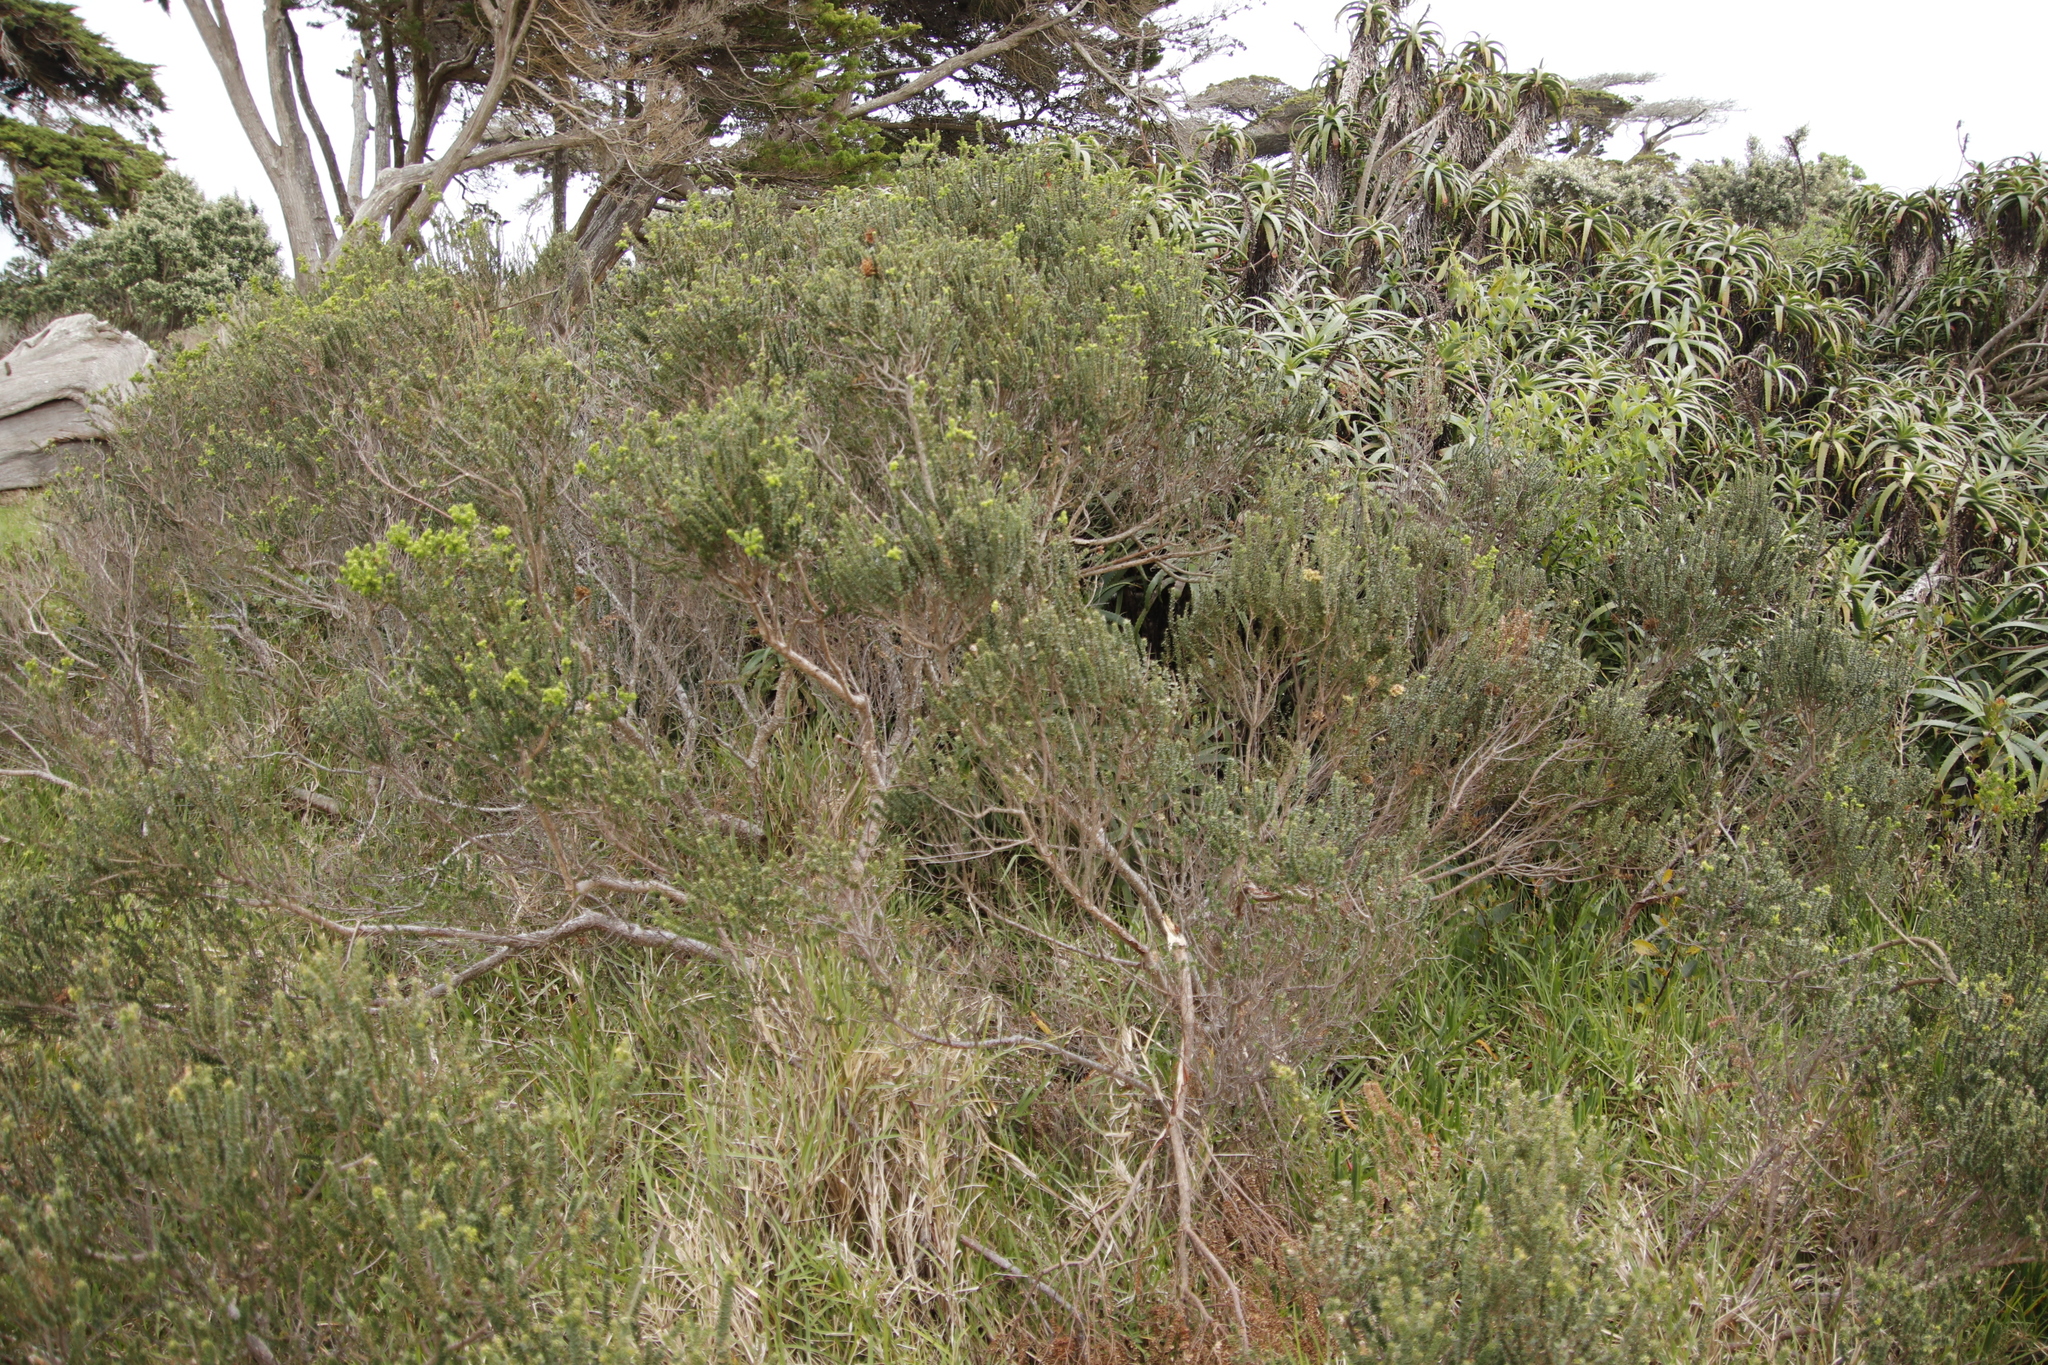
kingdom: Plantae
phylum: Tracheophyta
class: Magnoliopsida
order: Fagales
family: Myricaceae
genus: Morella
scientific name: Morella cordifolia
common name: Waxberry
